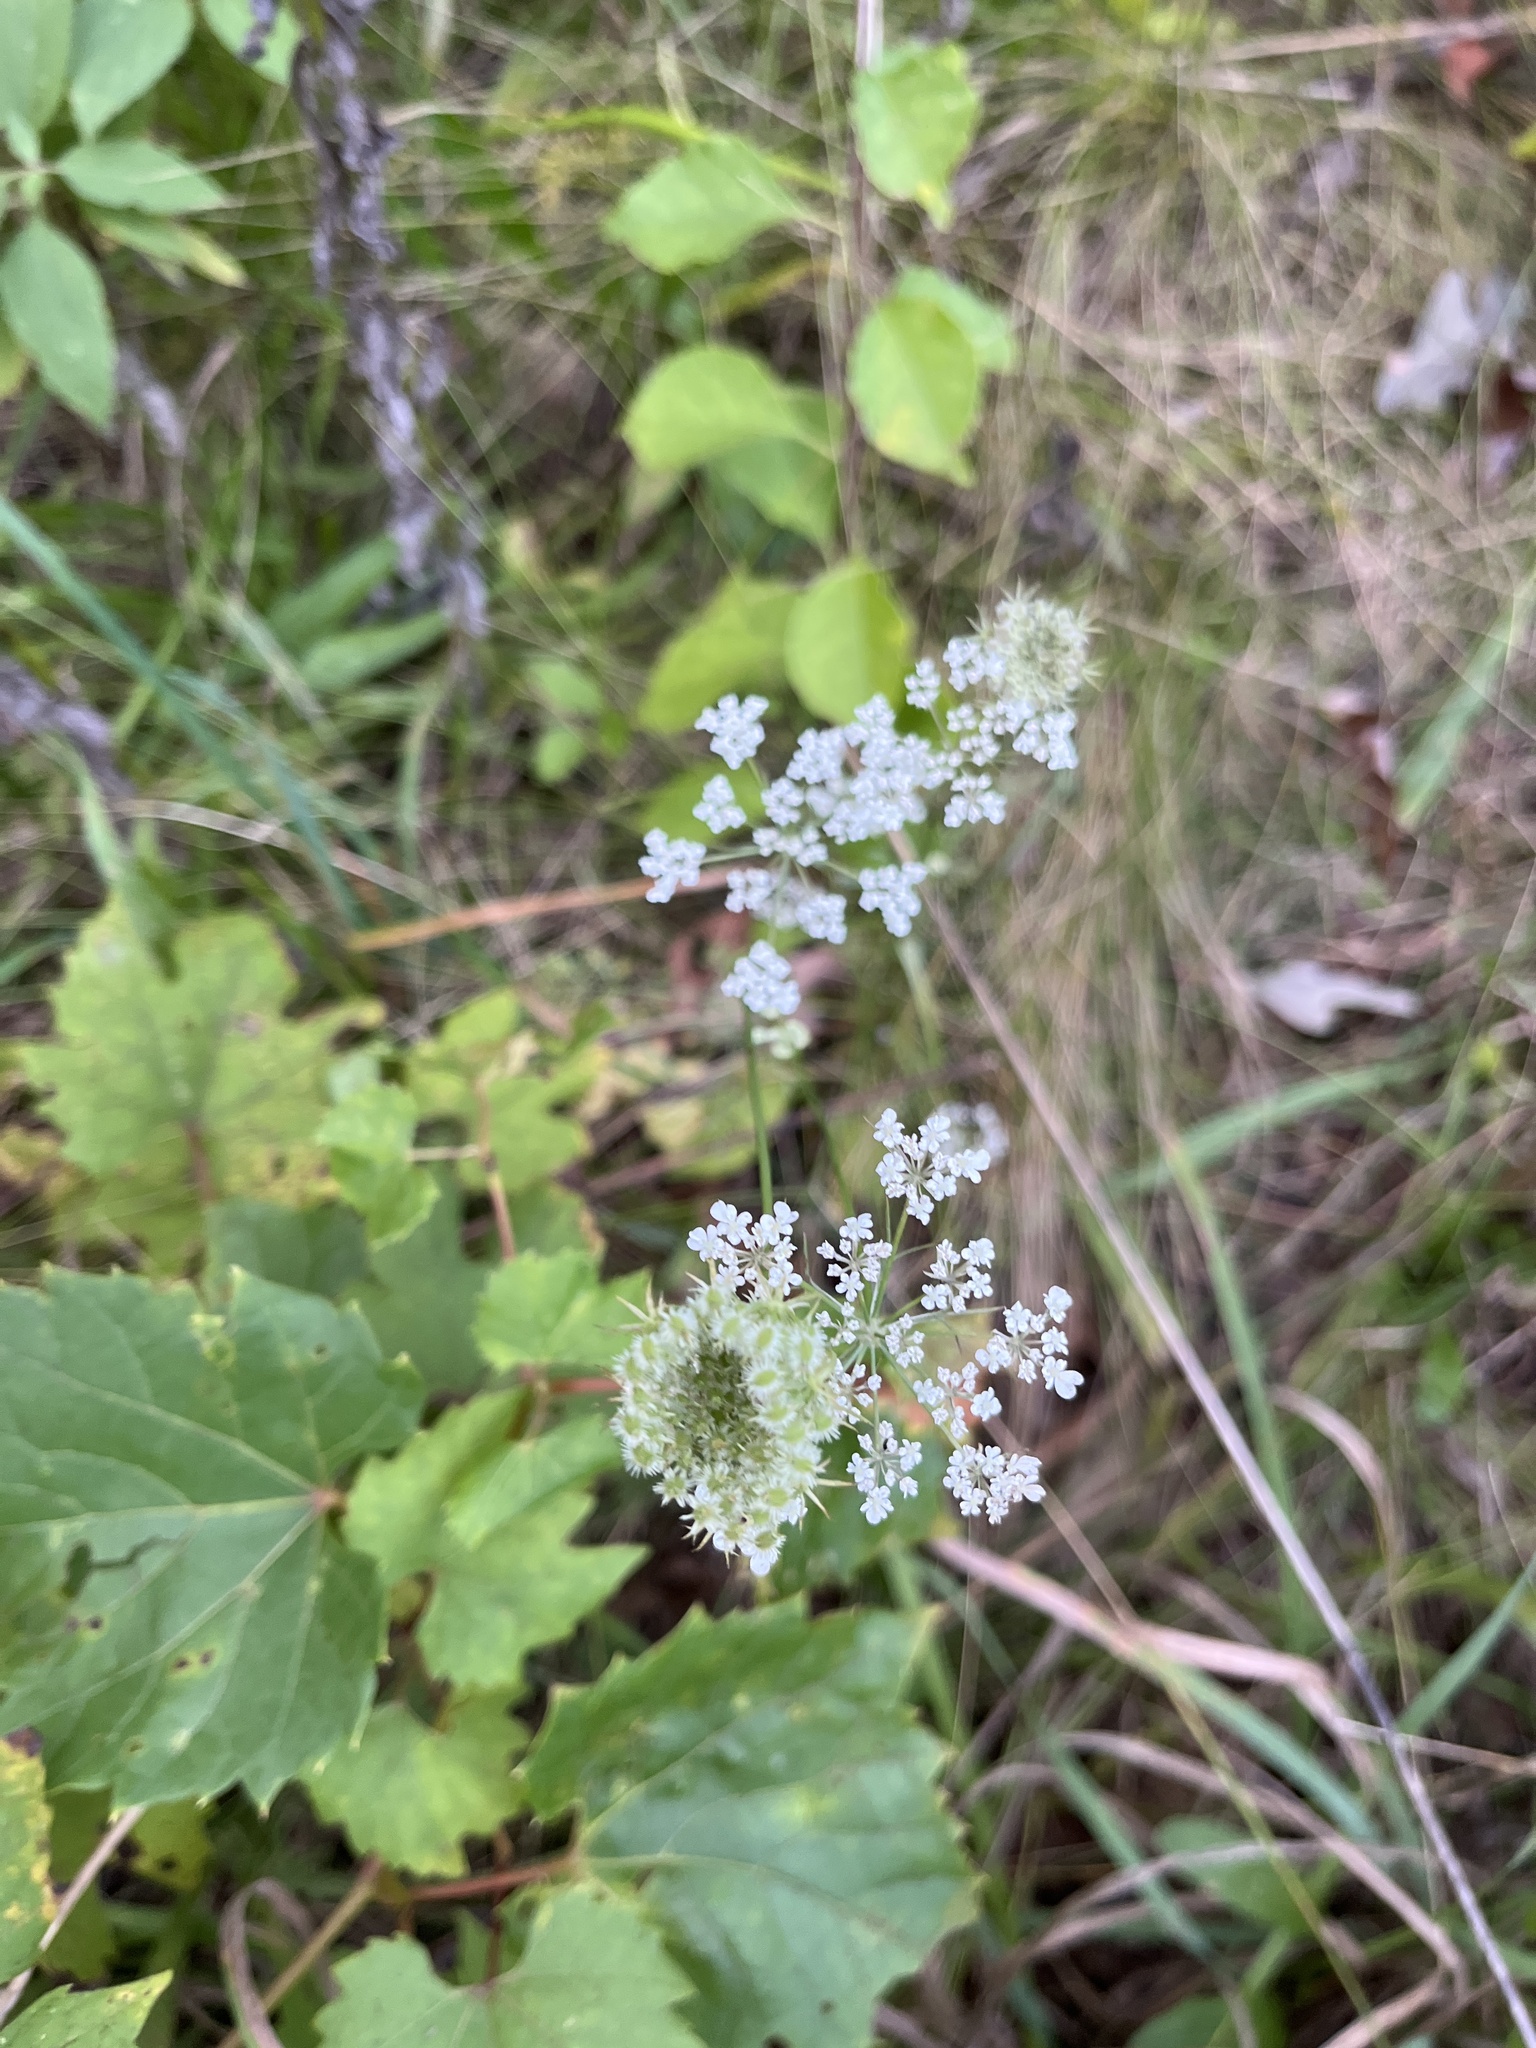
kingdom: Plantae
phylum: Tracheophyta
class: Magnoliopsida
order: Apiales
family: Apiaceae
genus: Daucus
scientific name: Daucus carota
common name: Wild carrot
